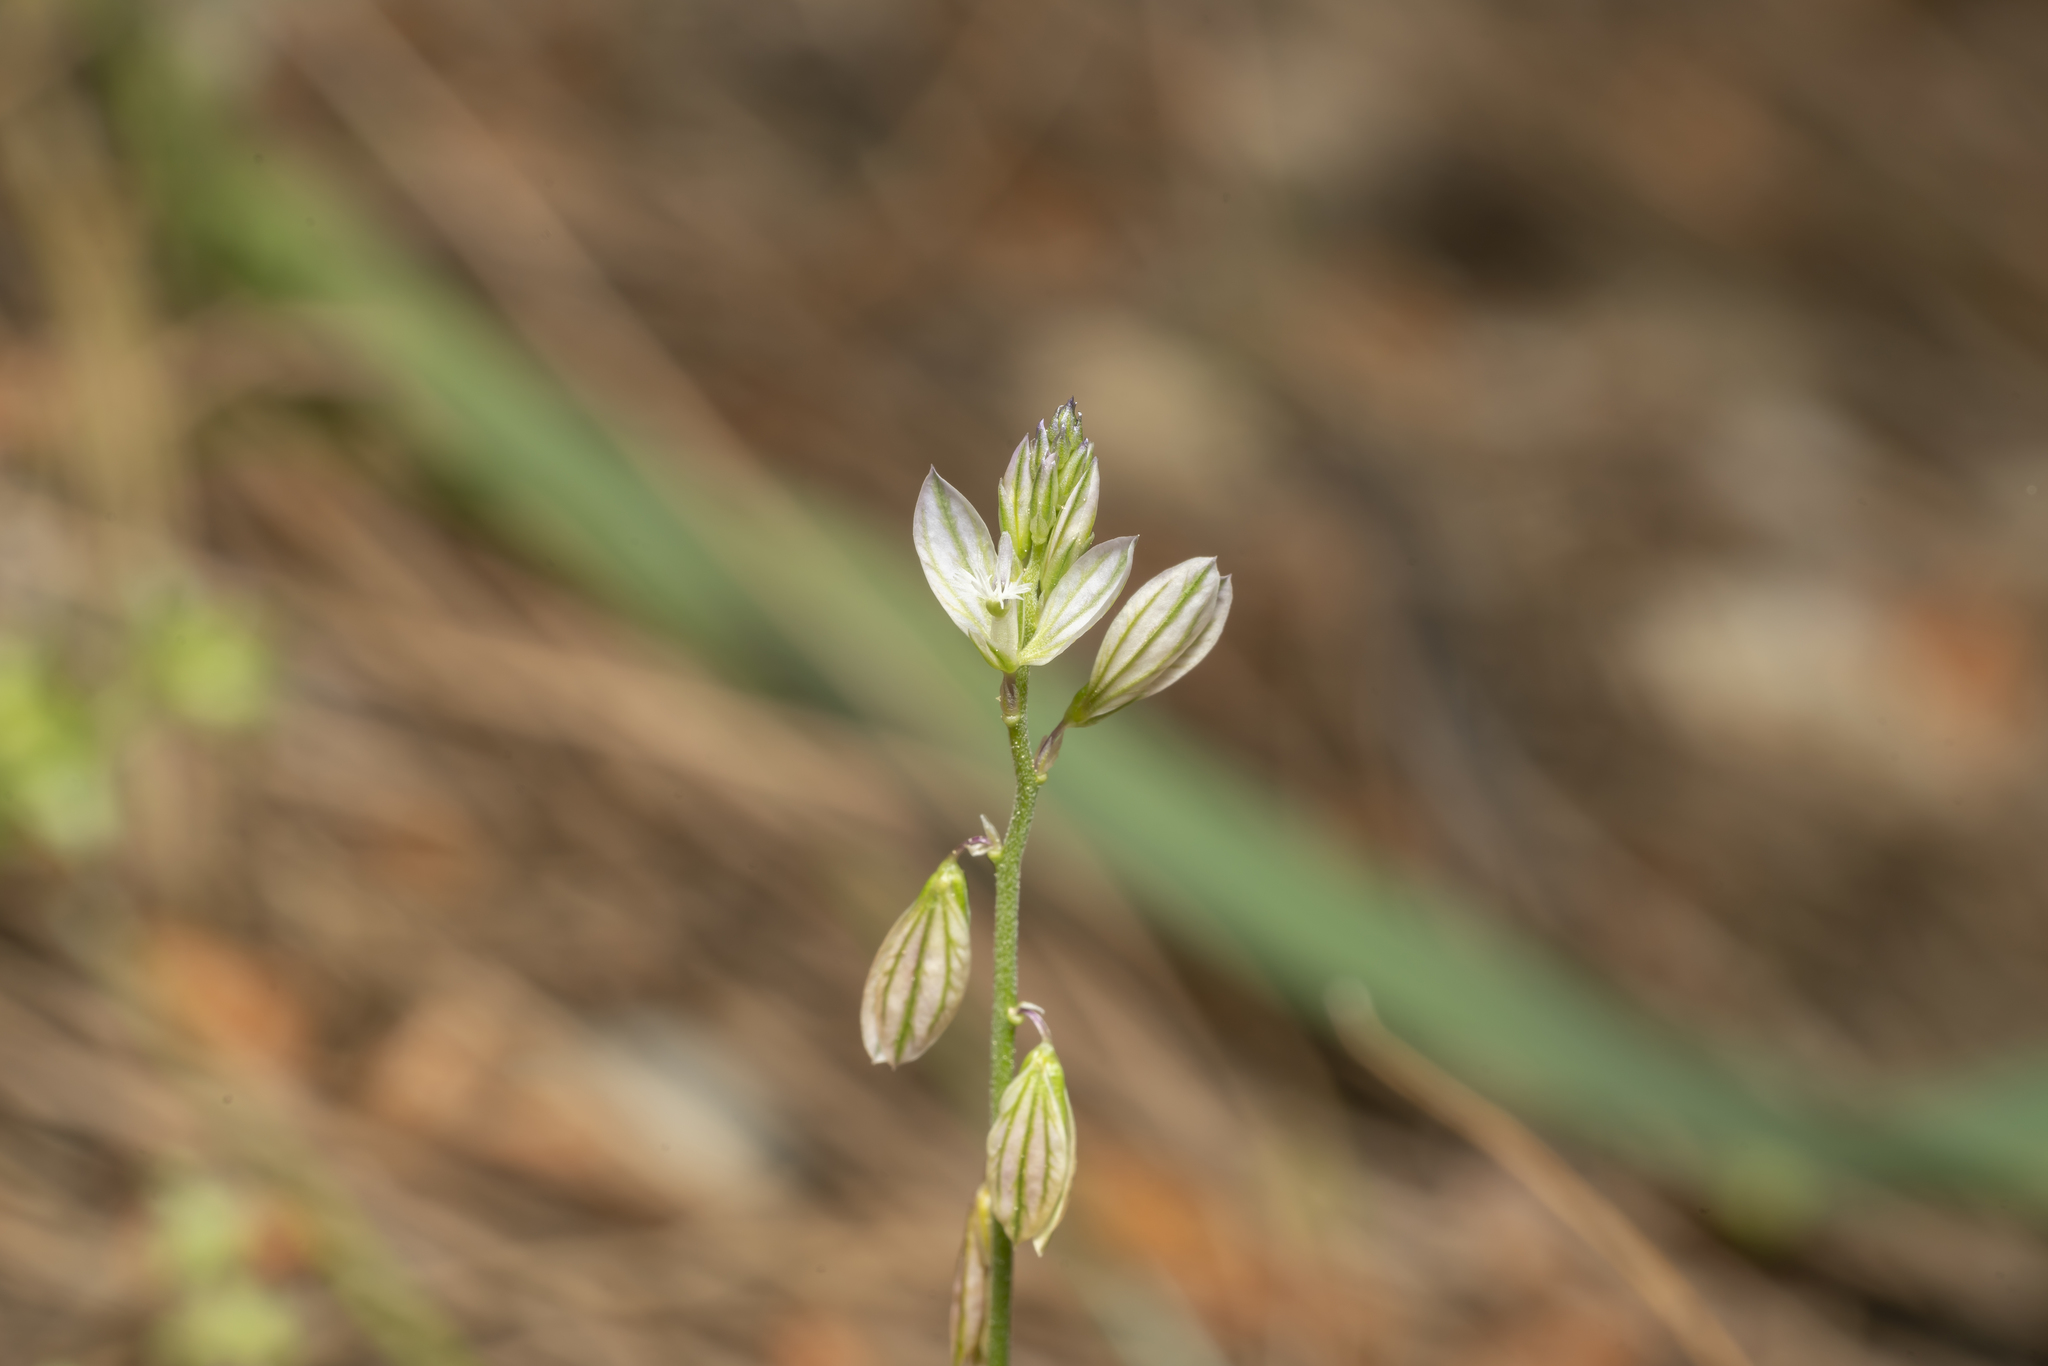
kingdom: Plantae
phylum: Tracheophyta
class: Magnoliopsida
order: Fabales
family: Polygalaceae
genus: Polygala
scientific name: Polygala monspeliaca
